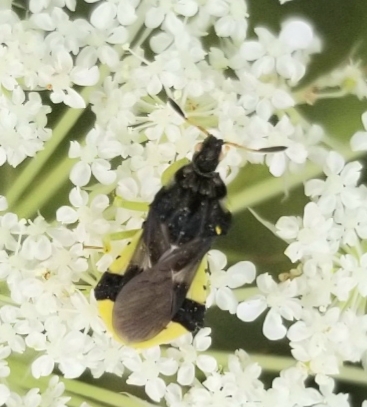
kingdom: Animalia
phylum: Arthropoda
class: Insecta
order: Hemiptera
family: Reduviidae
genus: Phymata
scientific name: Phymata americana
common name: Jagged ambush bug
